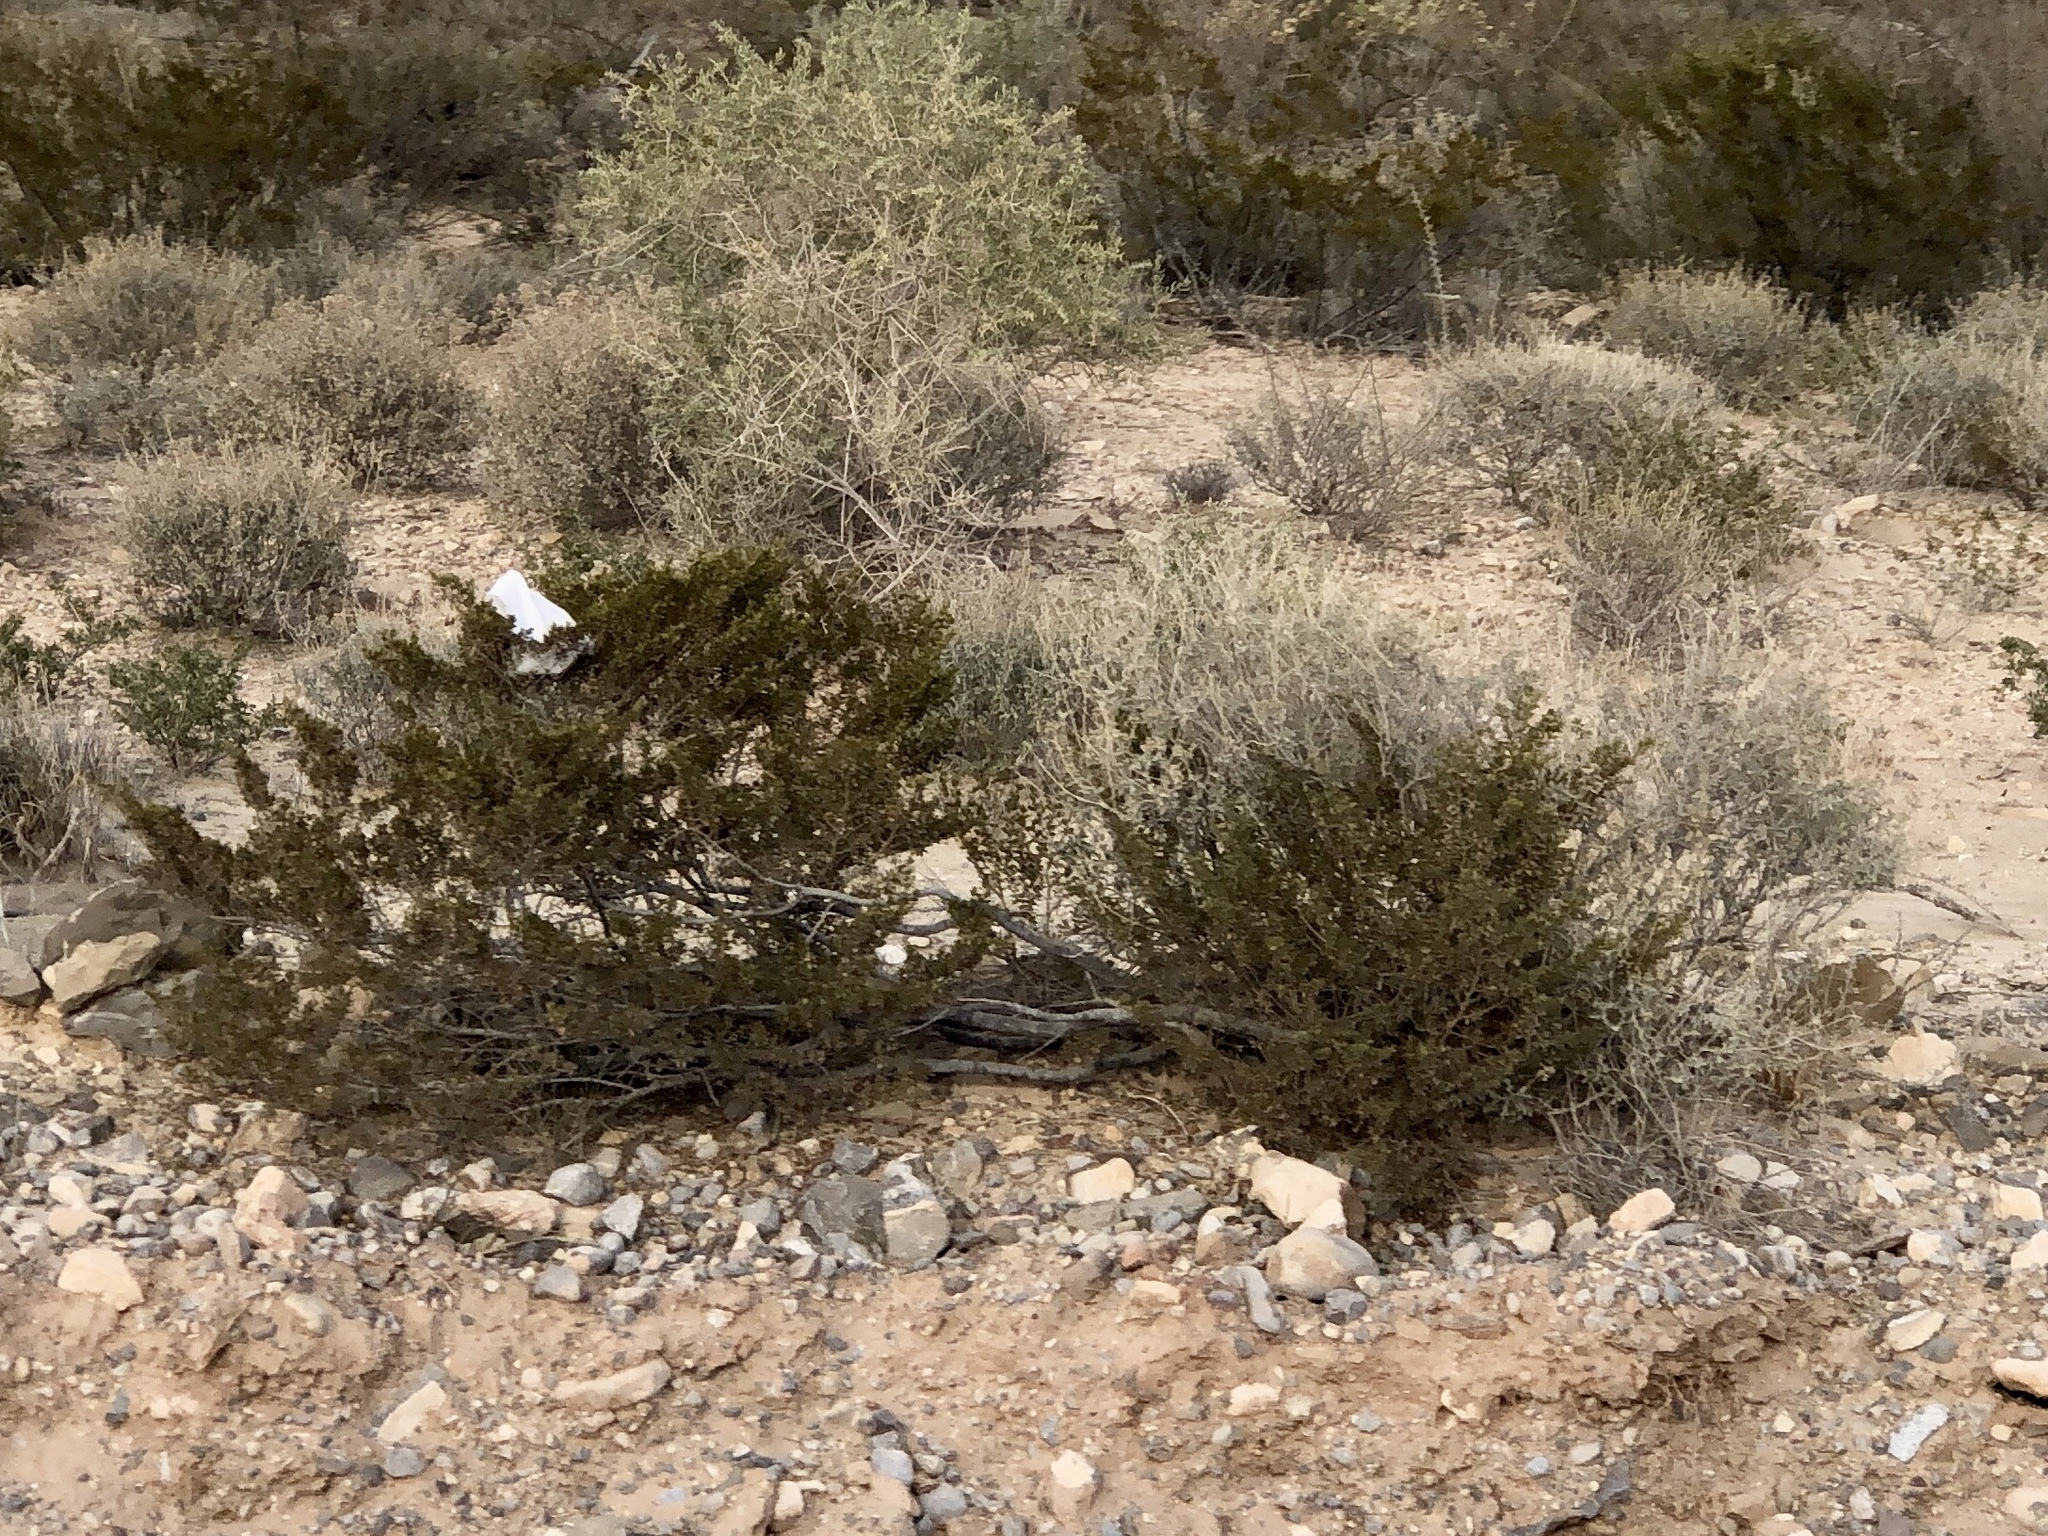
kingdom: Plantae
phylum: Tracheophyta
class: Magnoliopsida
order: Zygophyllales
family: Zygophyllaceae
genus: Larrea
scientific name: Larrea tridentata
